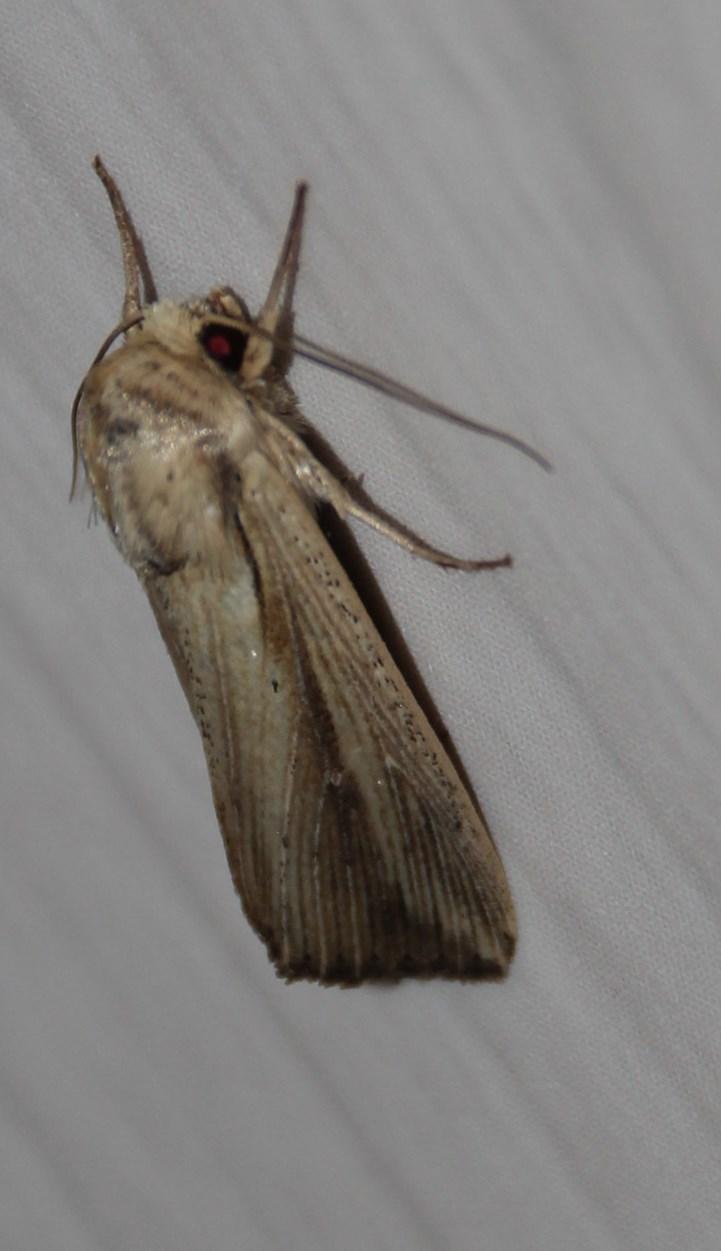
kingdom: Animalia
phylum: Arthropoda
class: Insecta
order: Lepidoptera
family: Noctuidae
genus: Leucania
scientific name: Leucania loreyi
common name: The cosmopolitan
